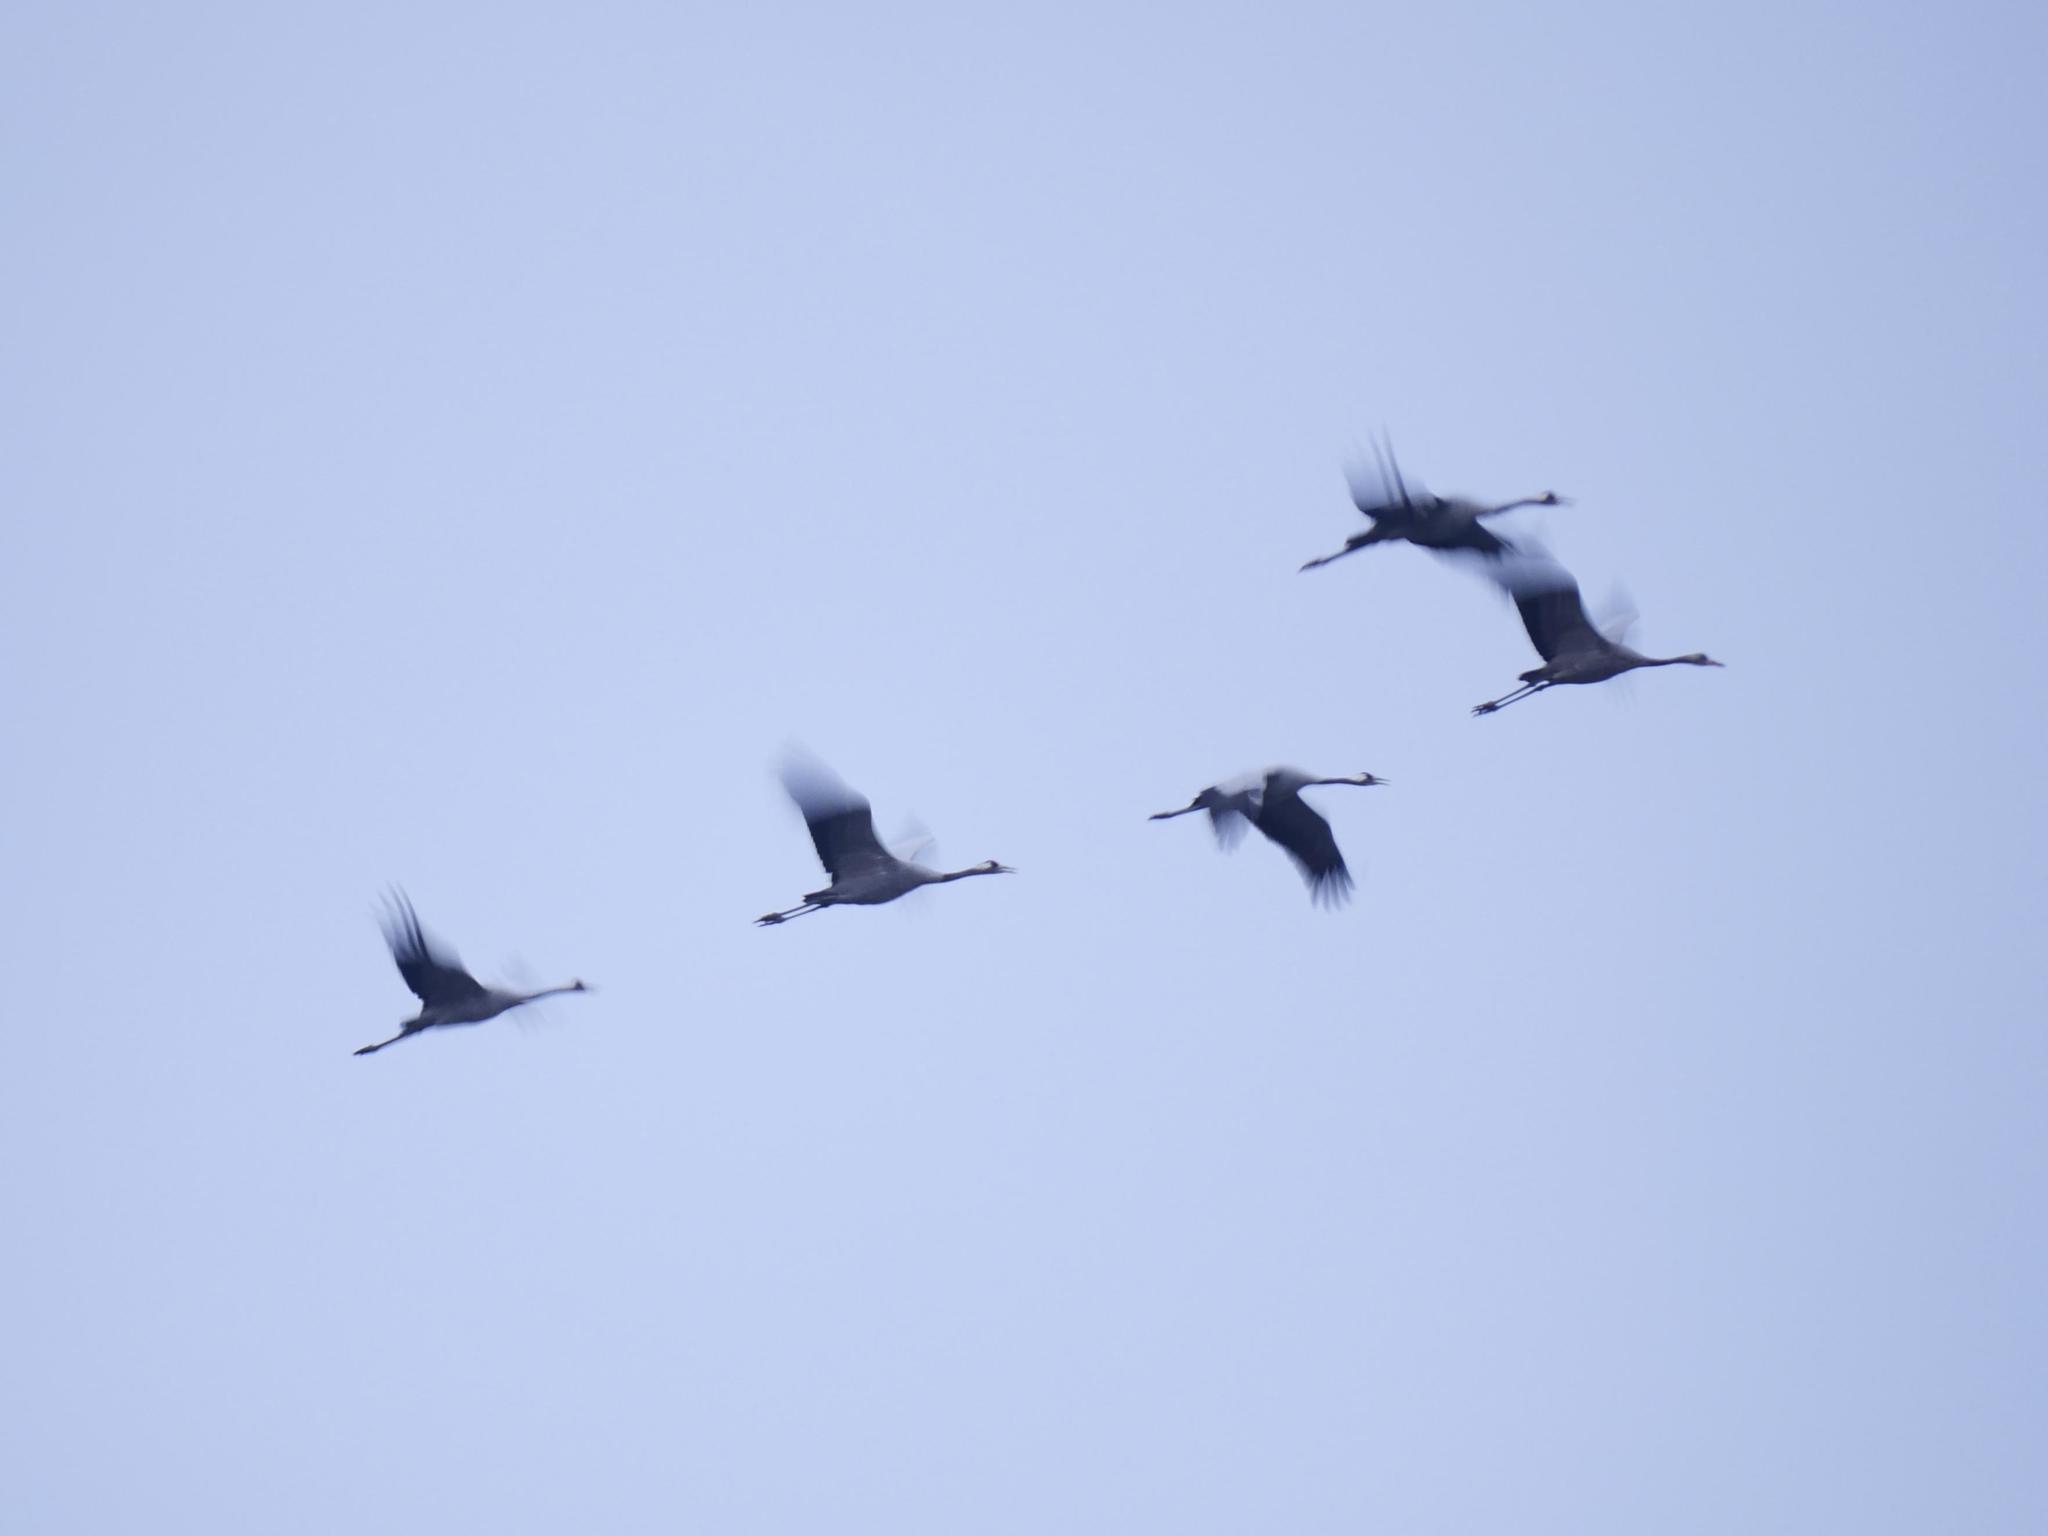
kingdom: Animalia
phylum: Chordata
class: Aves
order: Gruiformes
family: Gruidae
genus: Grus
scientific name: Grus grus
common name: Common crane
